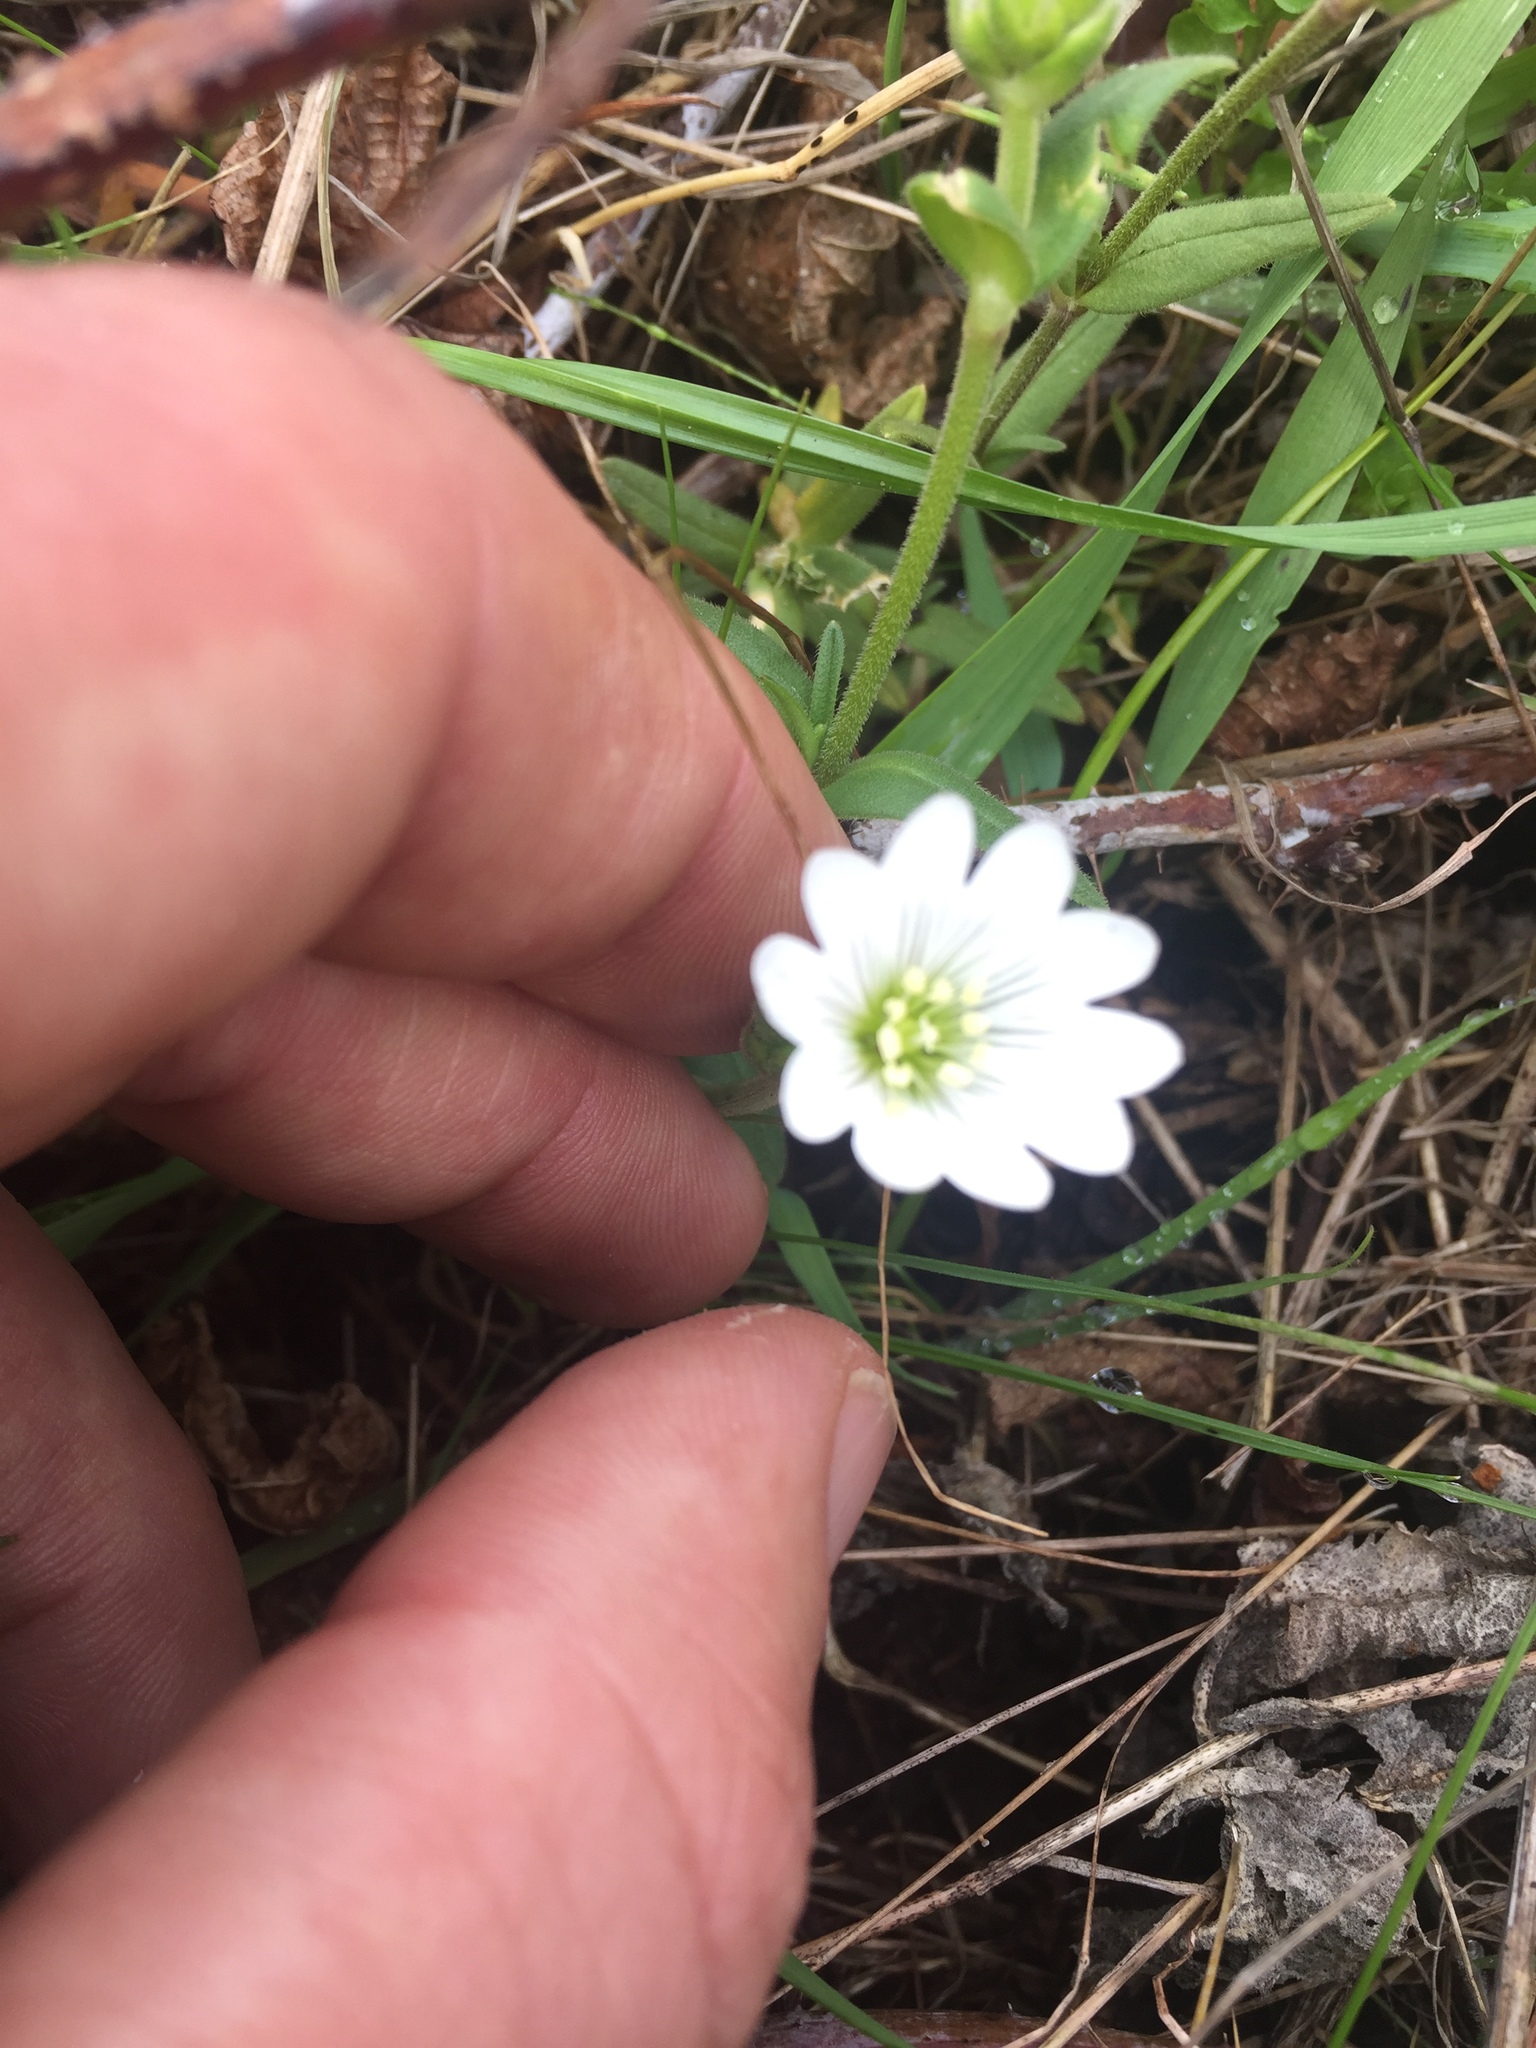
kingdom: Plantae
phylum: Tracheophyta
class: Magnoliopsida
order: Caryophyllales
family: Caryophyllaceae
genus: Cerastium
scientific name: Cerastium arvense
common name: Field mouse-ear
